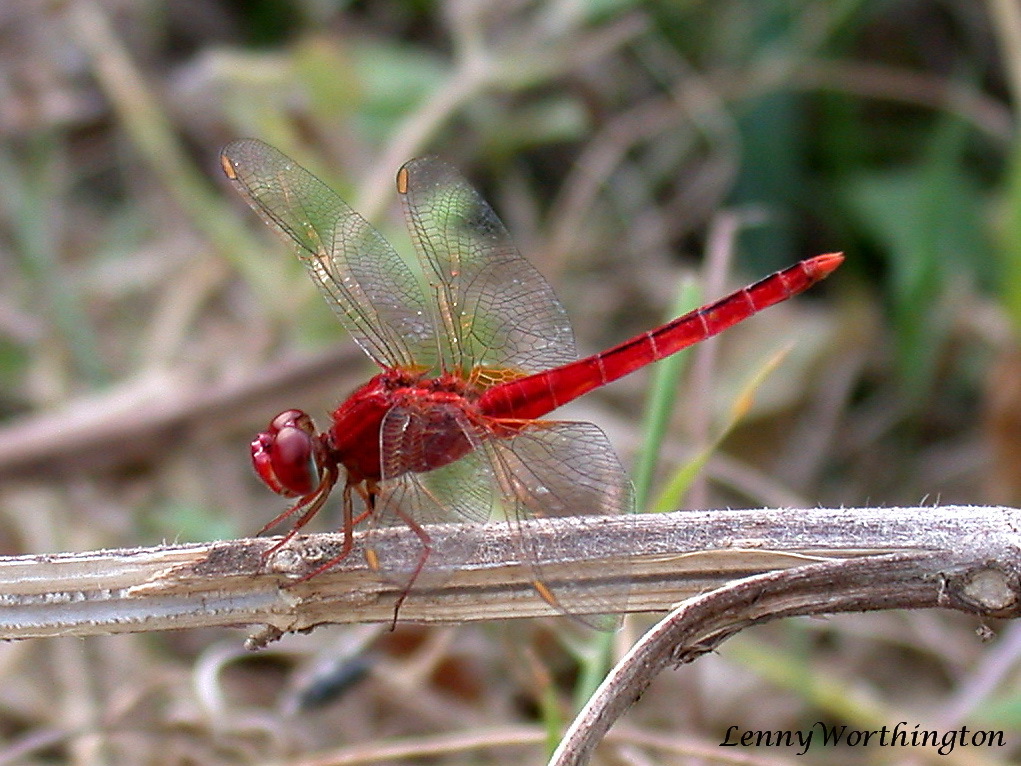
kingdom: Animalia
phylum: Arthropoda
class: Insecta
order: Odonata
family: Libellulidae
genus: Crocothemis
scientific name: Crocothemis servilia
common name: Scarlet skimmer
